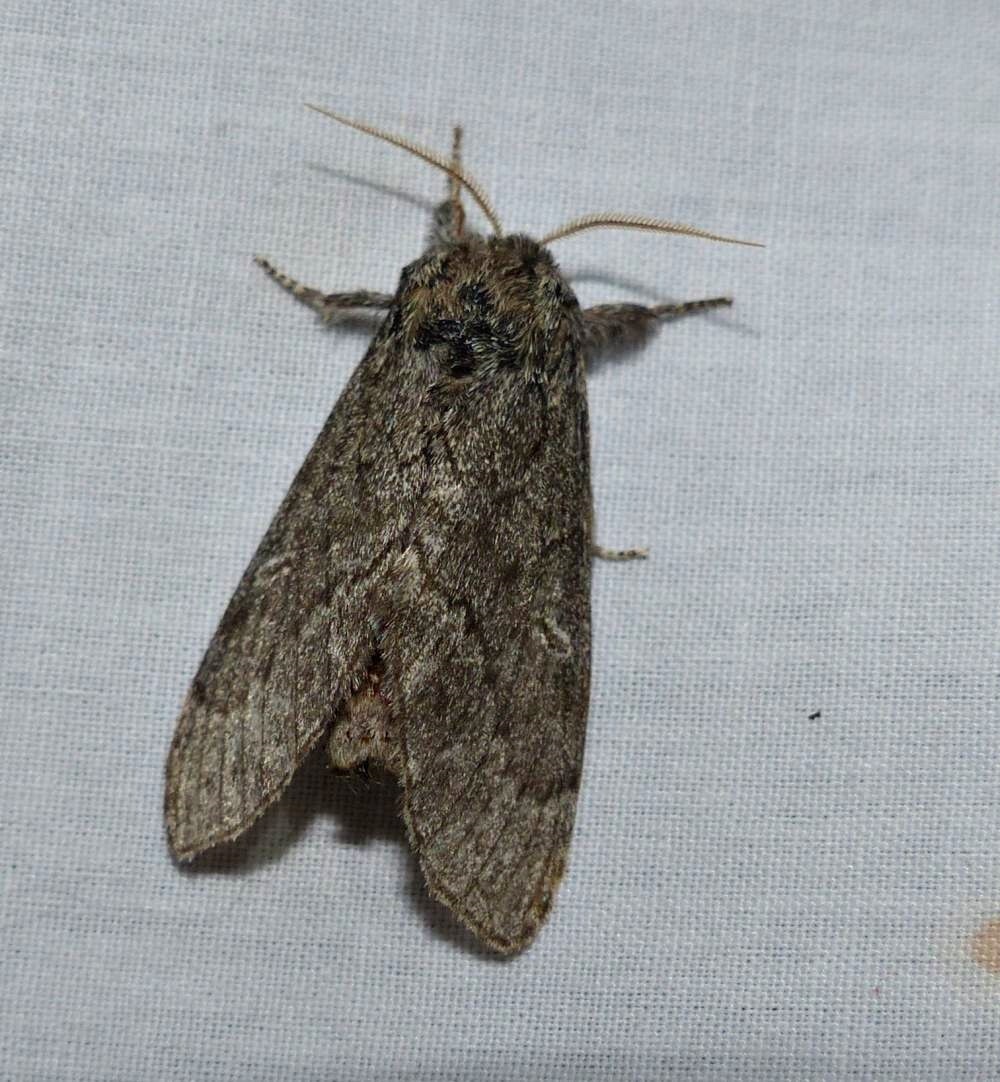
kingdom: Animalia
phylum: Arthropoda
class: Insecta
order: Lepidoptera
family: Notodontidae
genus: Notodonta
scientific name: Notodonta torva
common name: Large dark prominent
